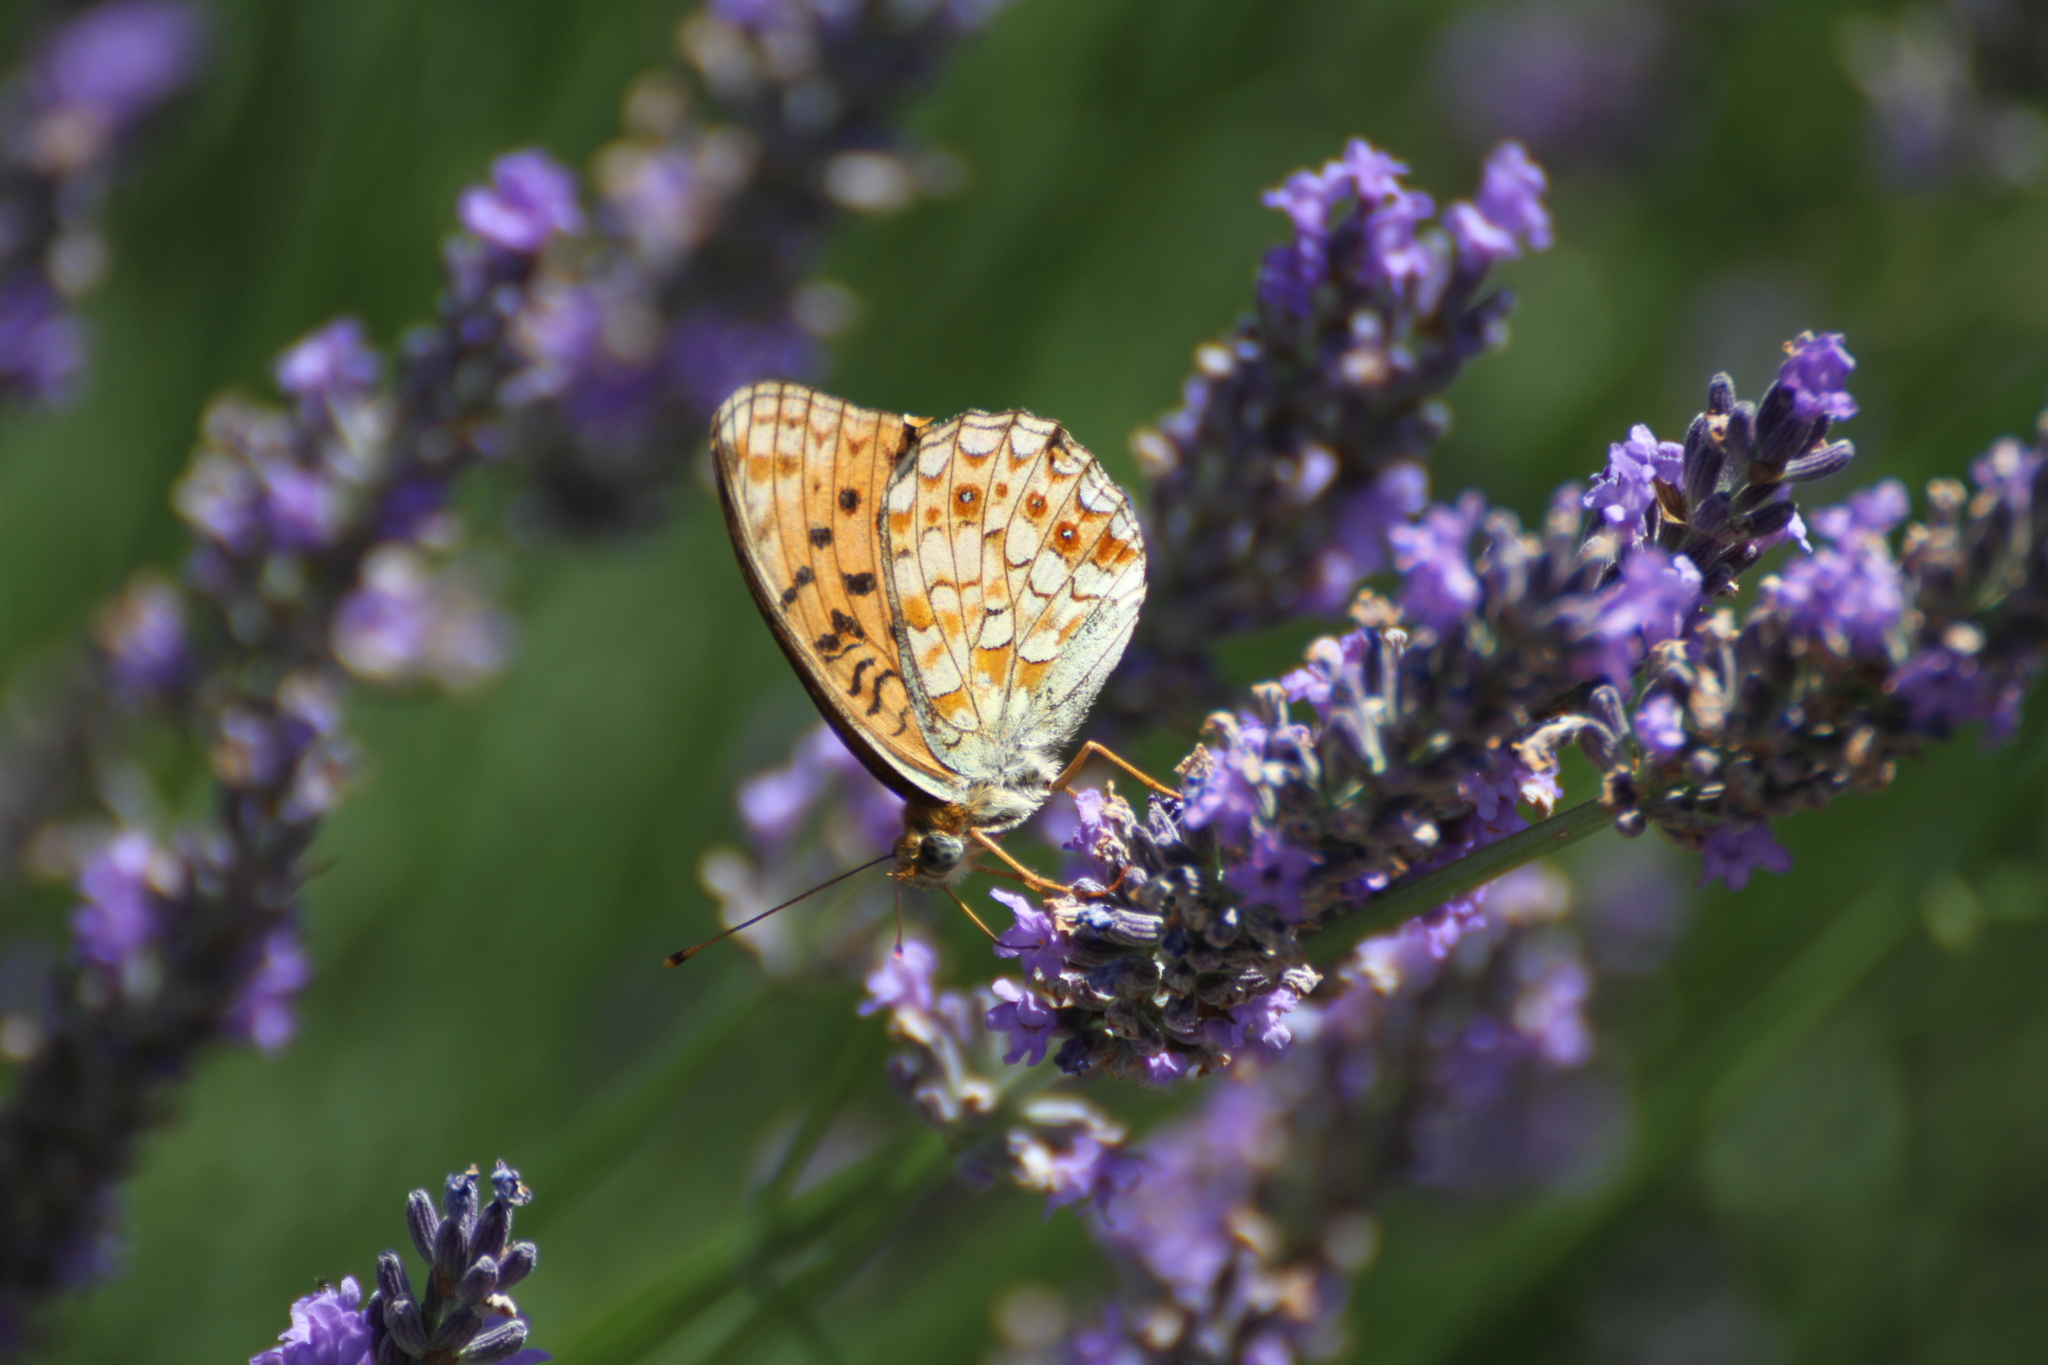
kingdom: Animalia
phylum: Arthropoda
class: Insecta
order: Lepidoptera
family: Nymphalidae
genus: Fabriciana
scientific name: Fabriciana niobe
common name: Niobe fritillary
